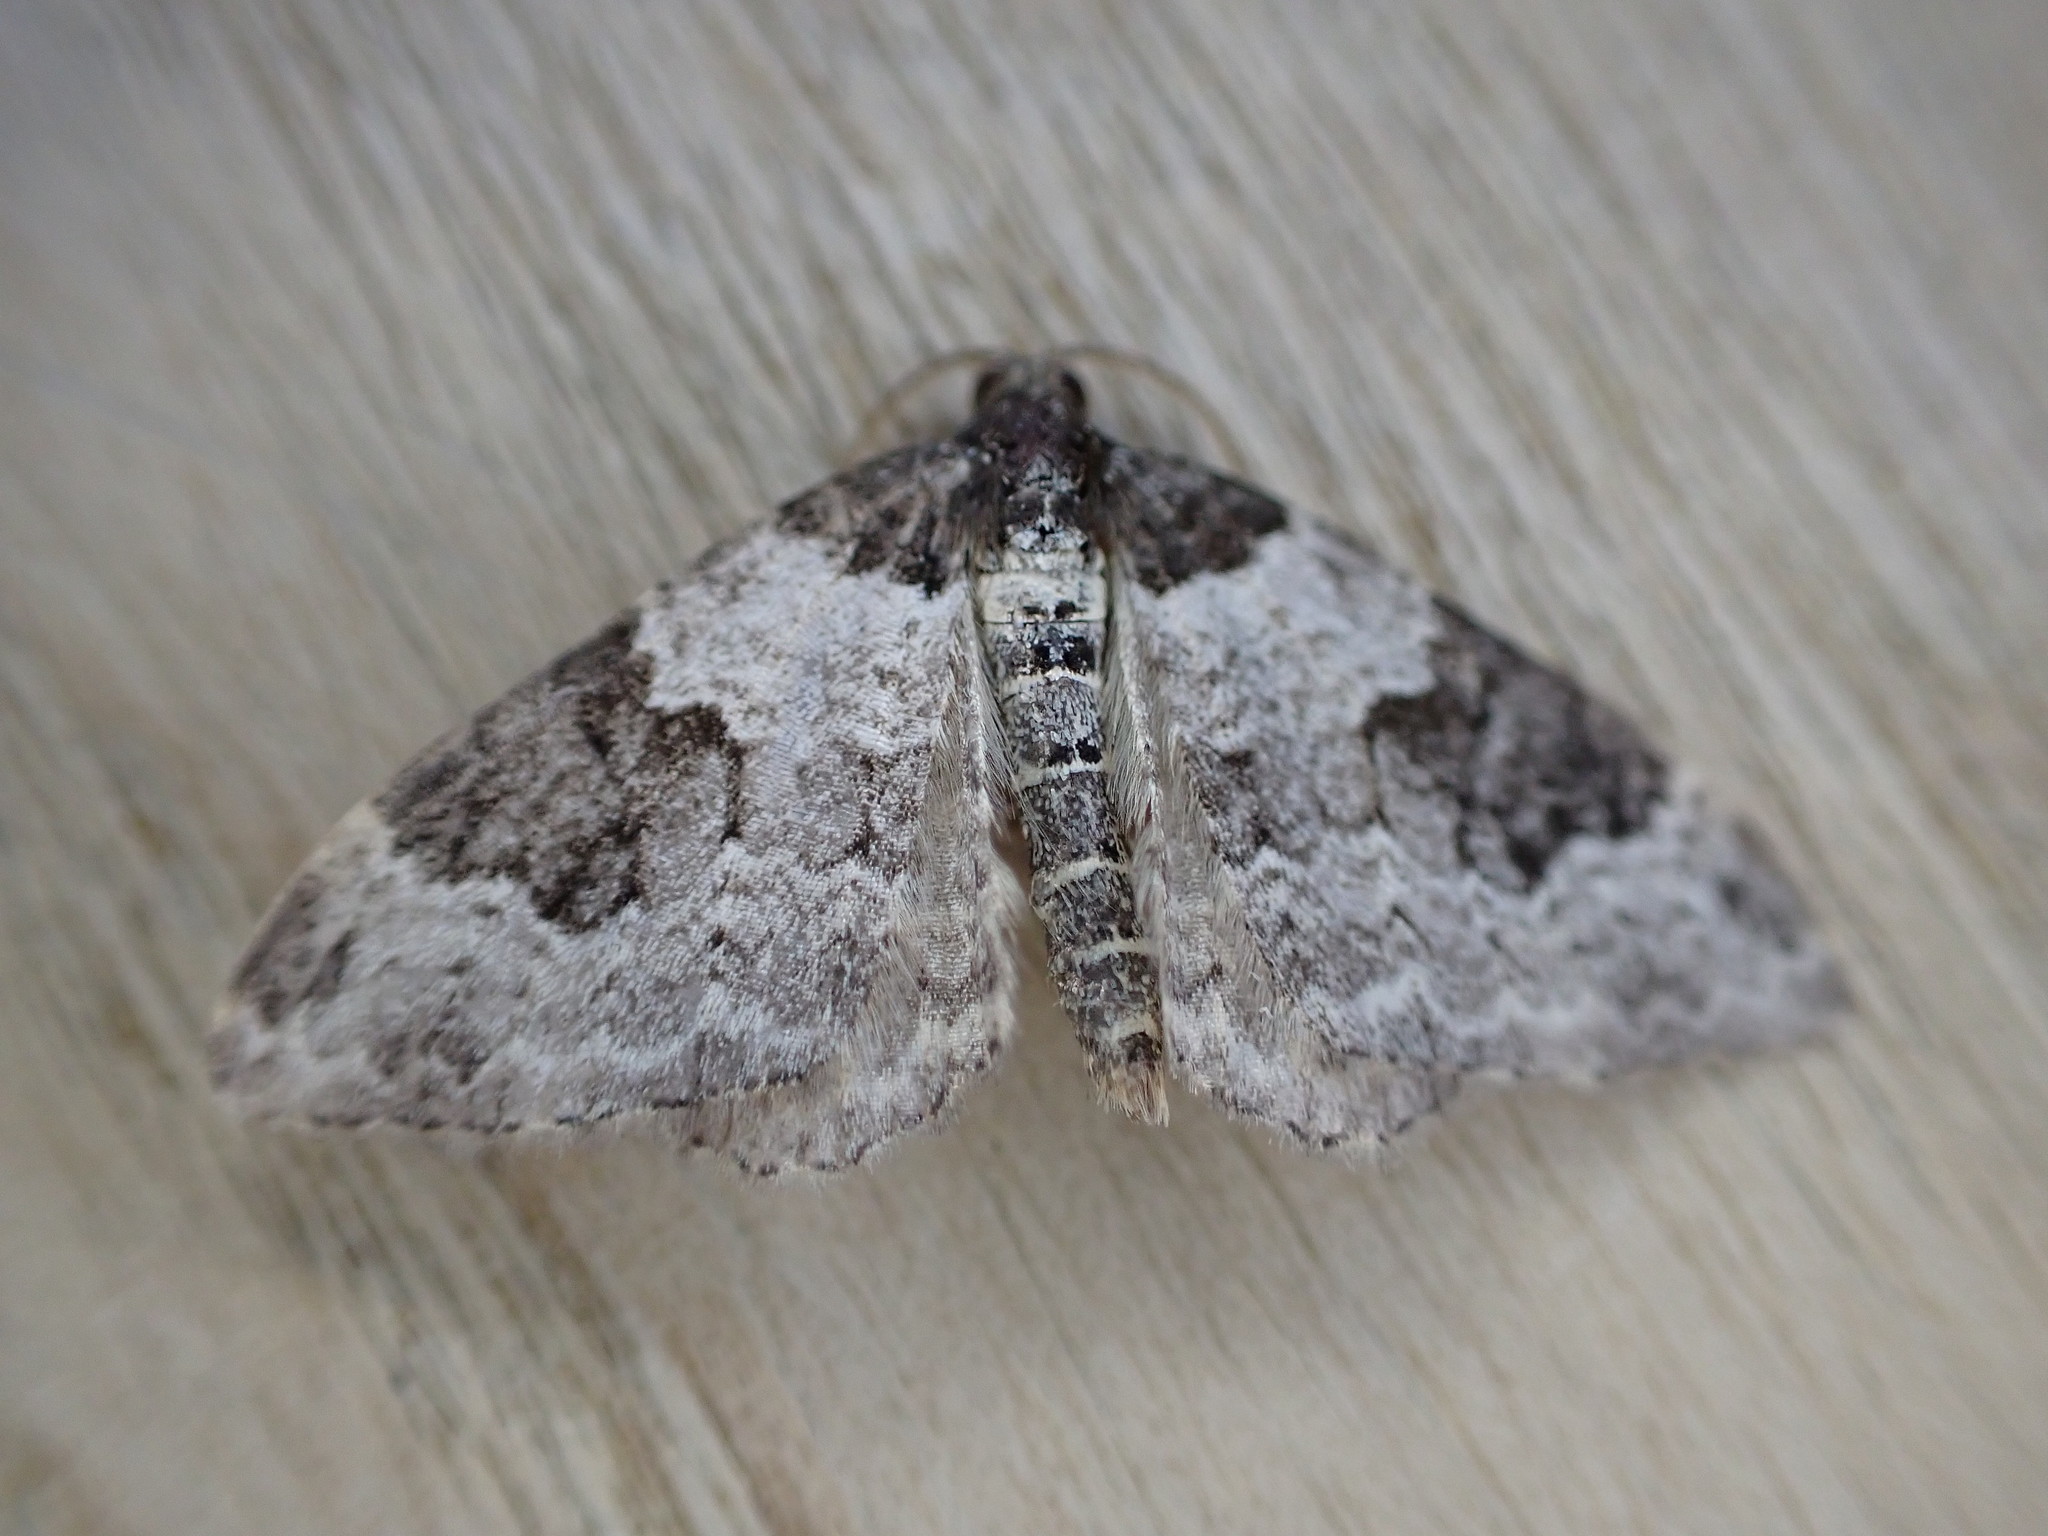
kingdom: Animalia
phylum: Arthropoda
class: Insecta
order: Lepidoptera
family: Geometridae
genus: Xanthorhoe
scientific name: Xanthorhoe fluctuata
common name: Garden carpet
